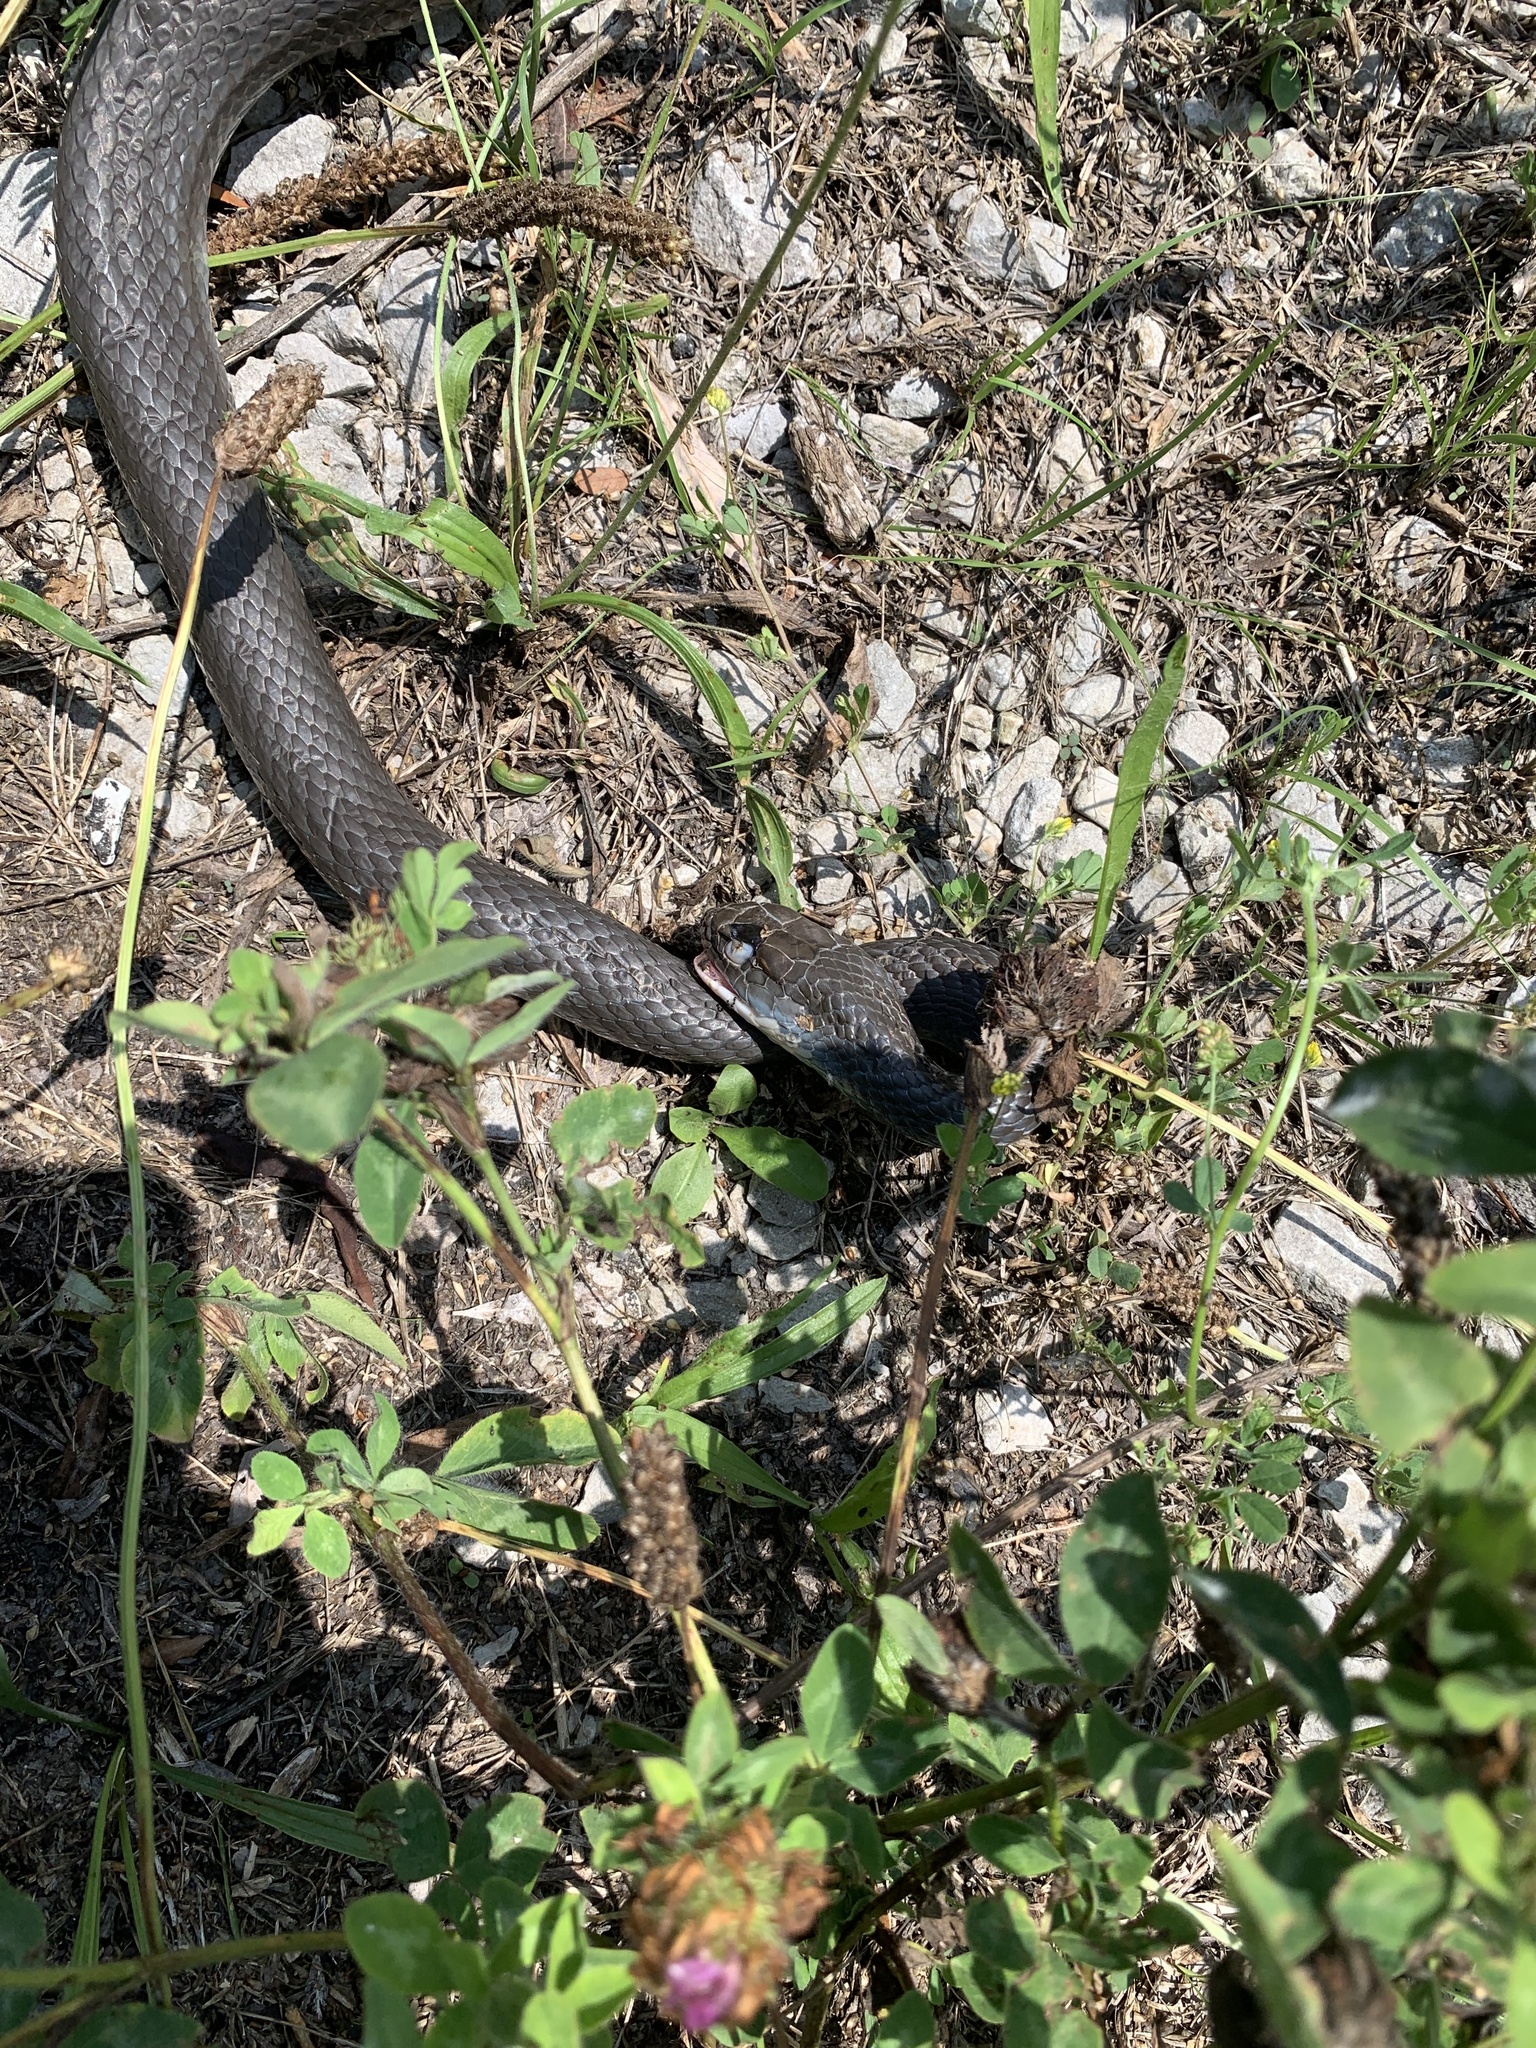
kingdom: Animalia
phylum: Chordata
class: Squamata
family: Colubridae
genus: Coluber
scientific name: Coluber constrictor
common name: Eastern racer
